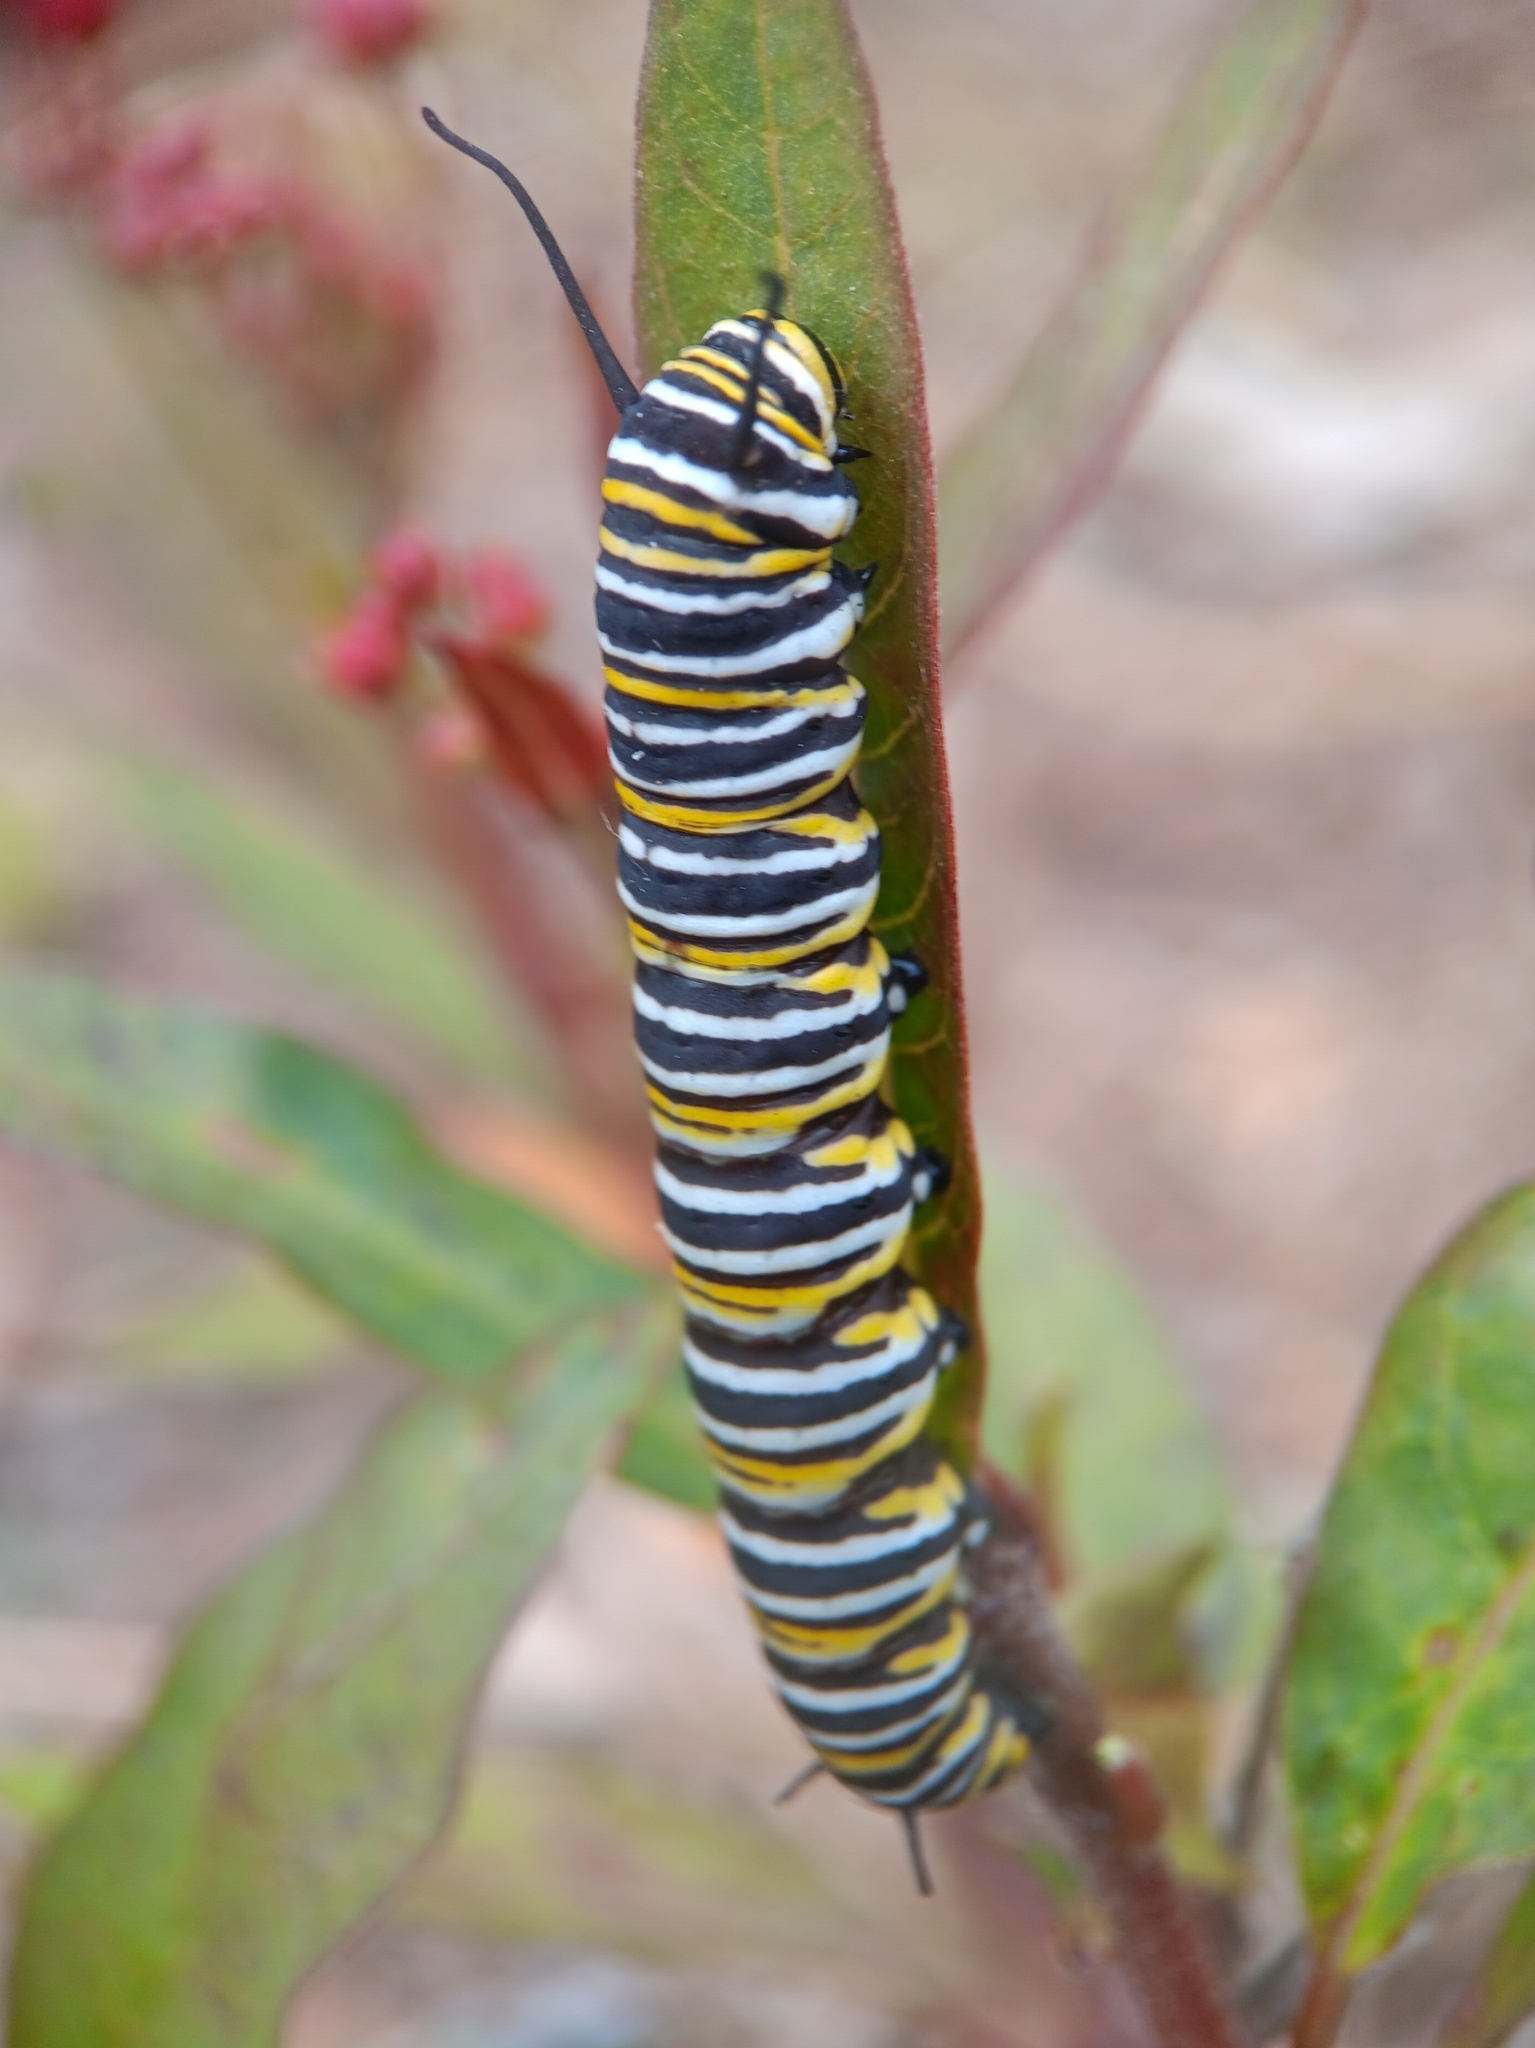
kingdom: Animalia
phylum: Arthropoda
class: Insecta
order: Lepidoptera
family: Nymphalidae
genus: Danaus
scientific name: Danaus plexippus
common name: Monarch
